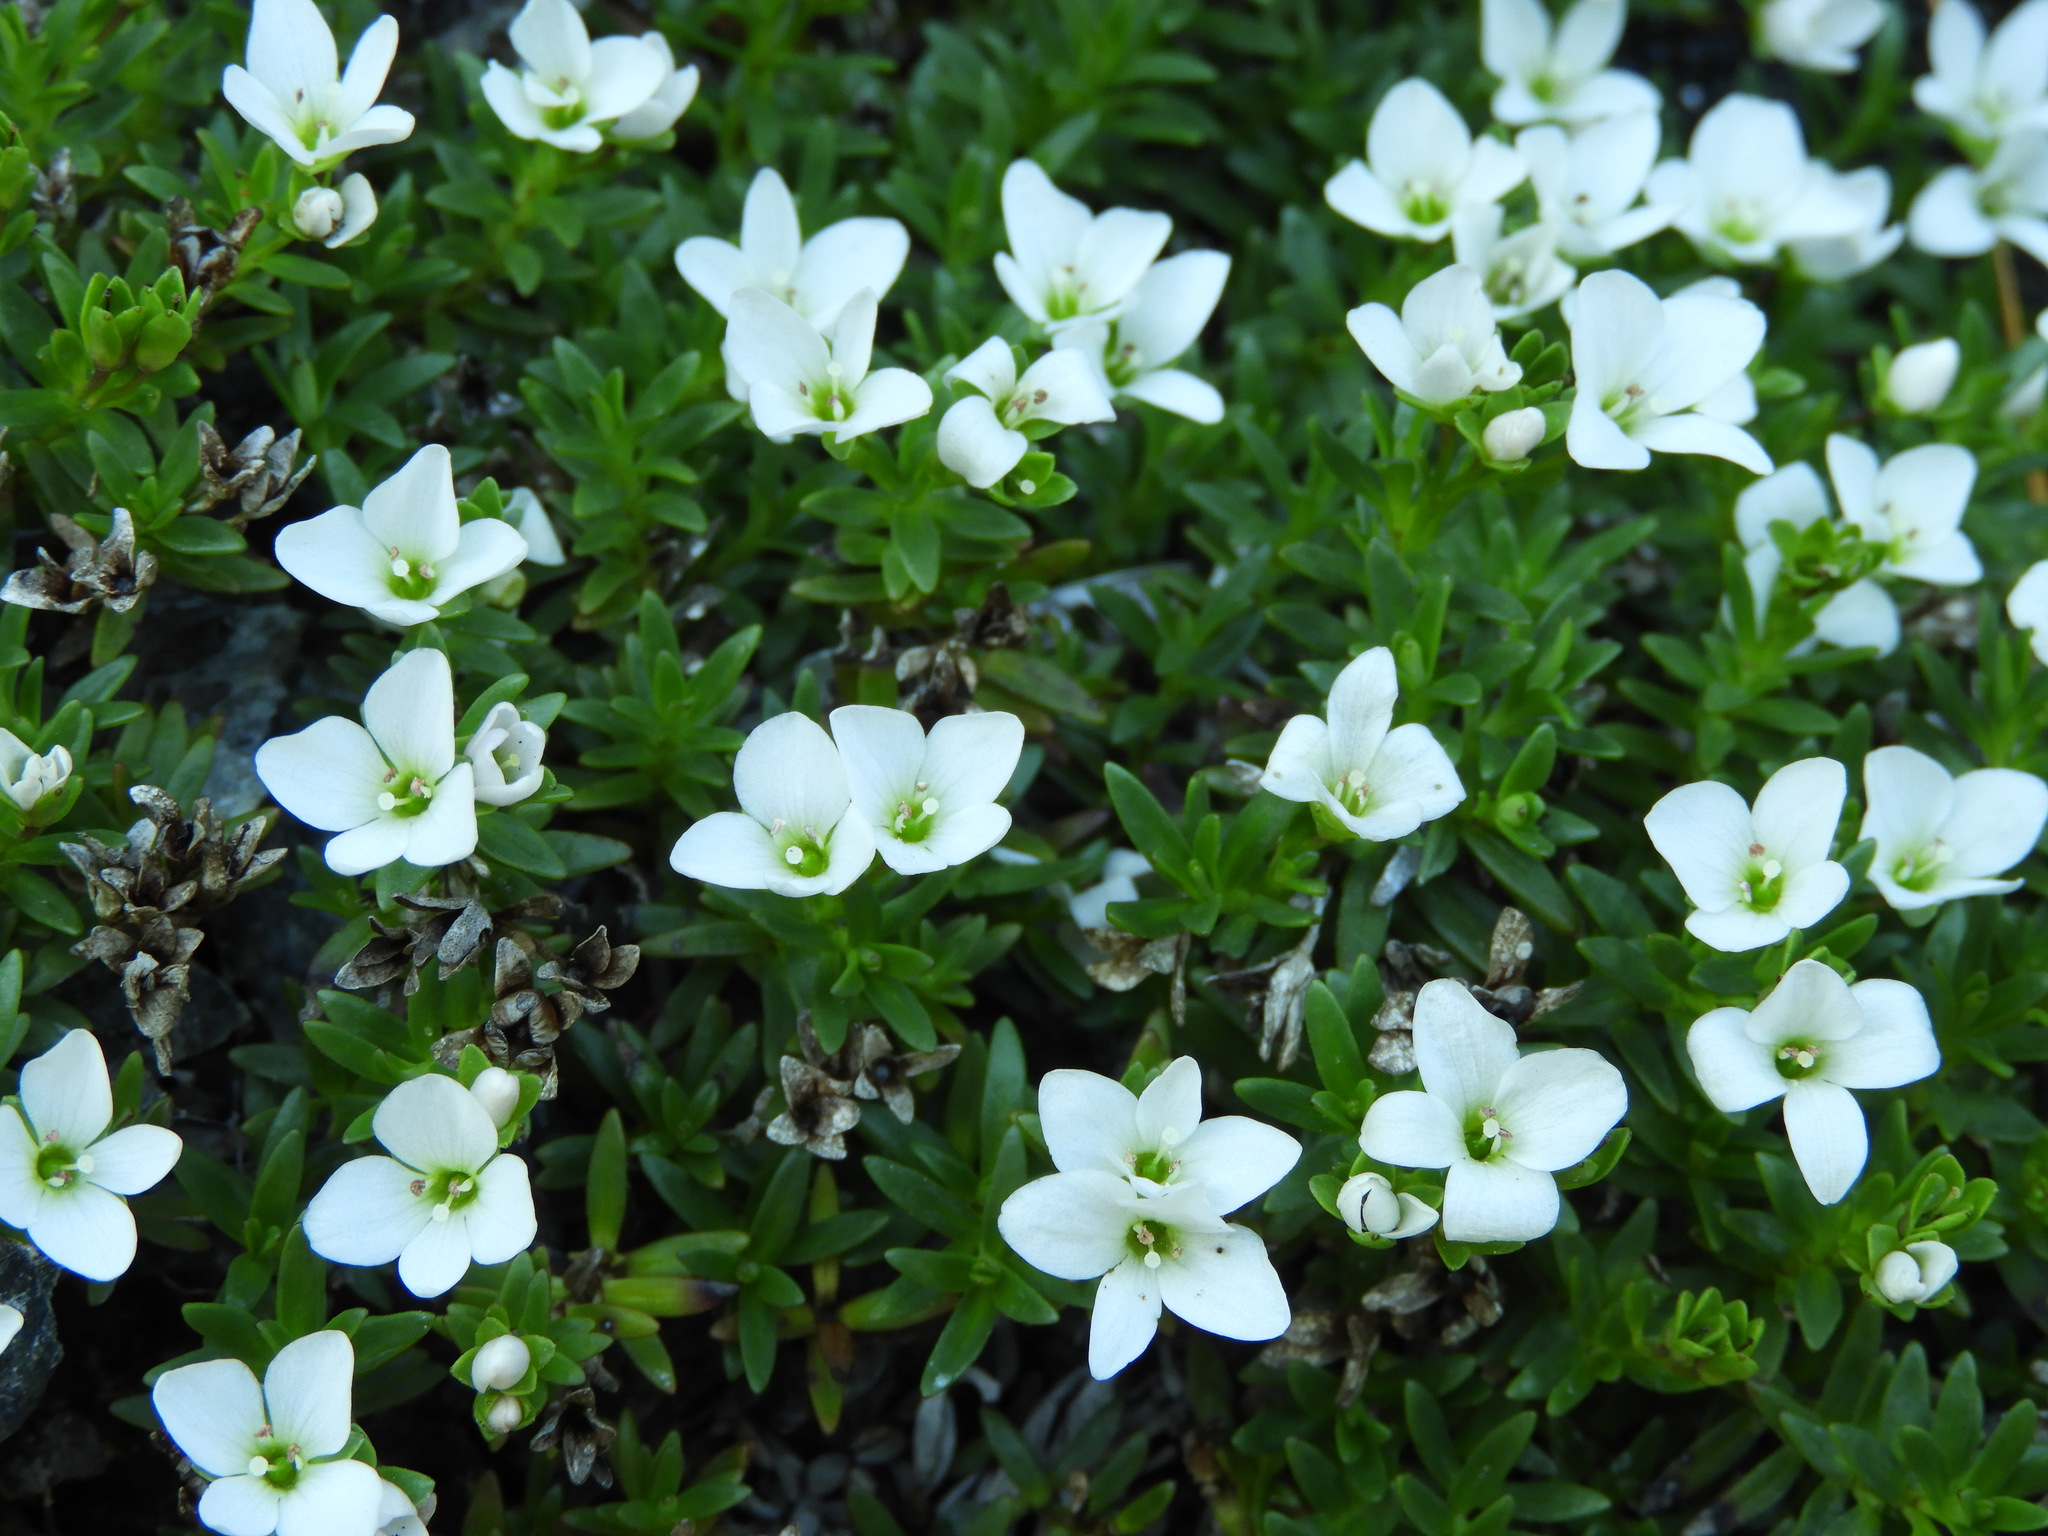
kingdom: Plantae
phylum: Tracheophyta
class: Magnoliopsida
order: Lamiales
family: Plantaginaceae
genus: Veronica
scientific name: Veronica colostylis
